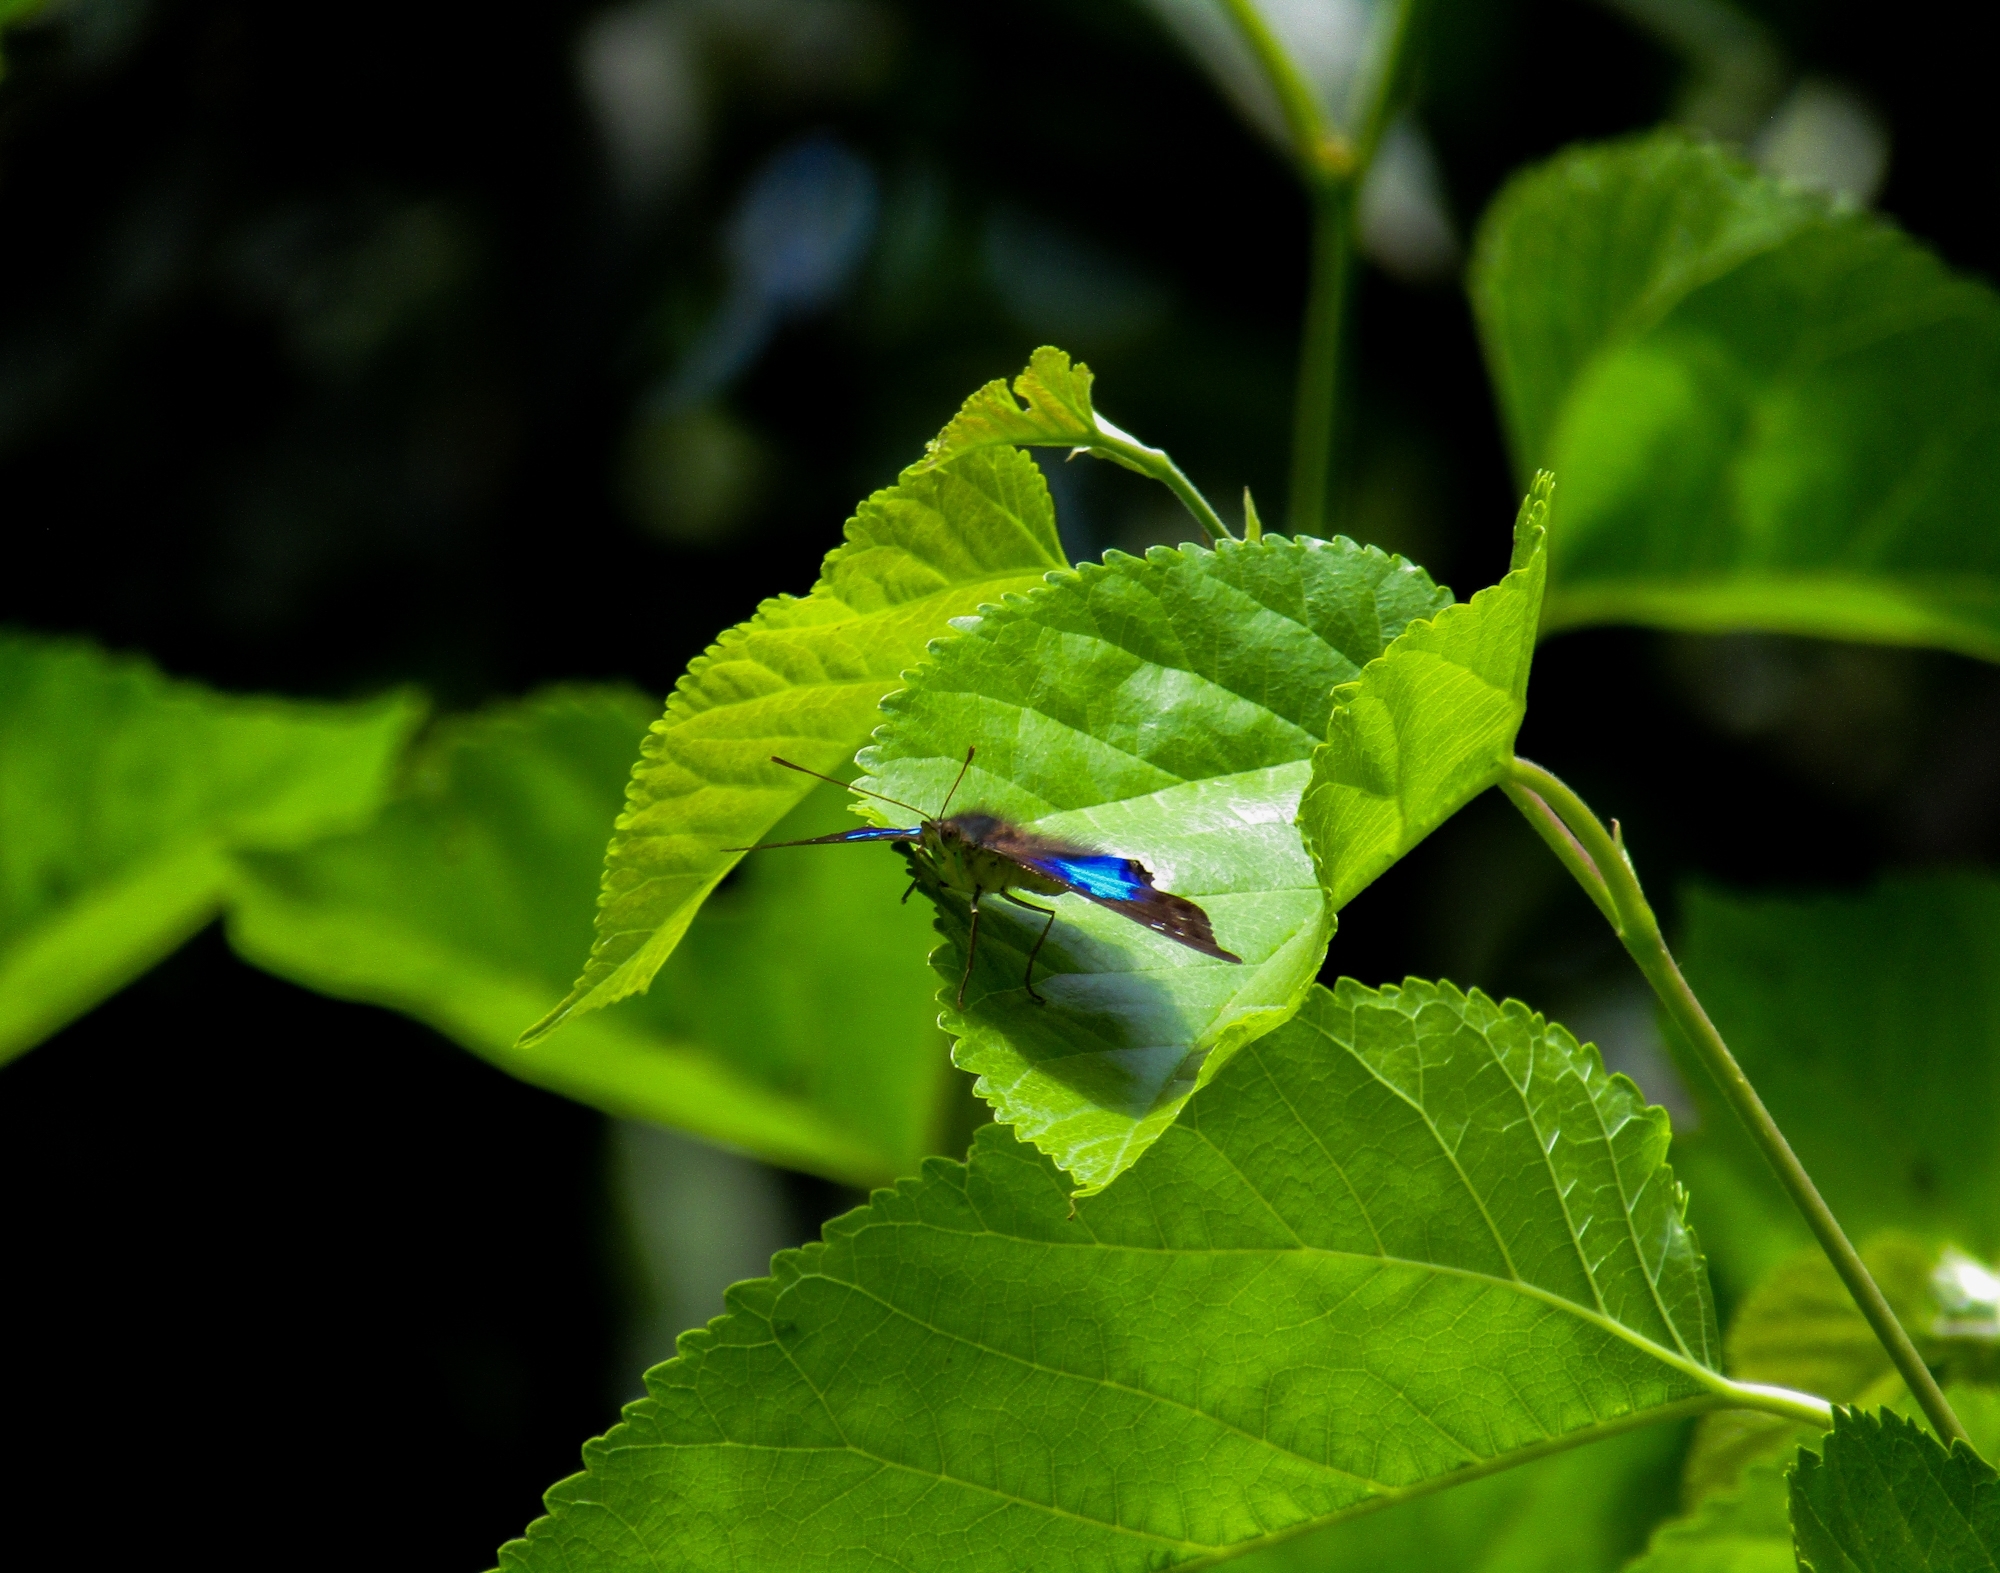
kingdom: Animalia
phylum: Arthropoda
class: Insecta
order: Lepidoptera
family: Nymphalidae
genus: Doxocopa
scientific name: Doxocopa laurentia
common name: Turquoise emperor
